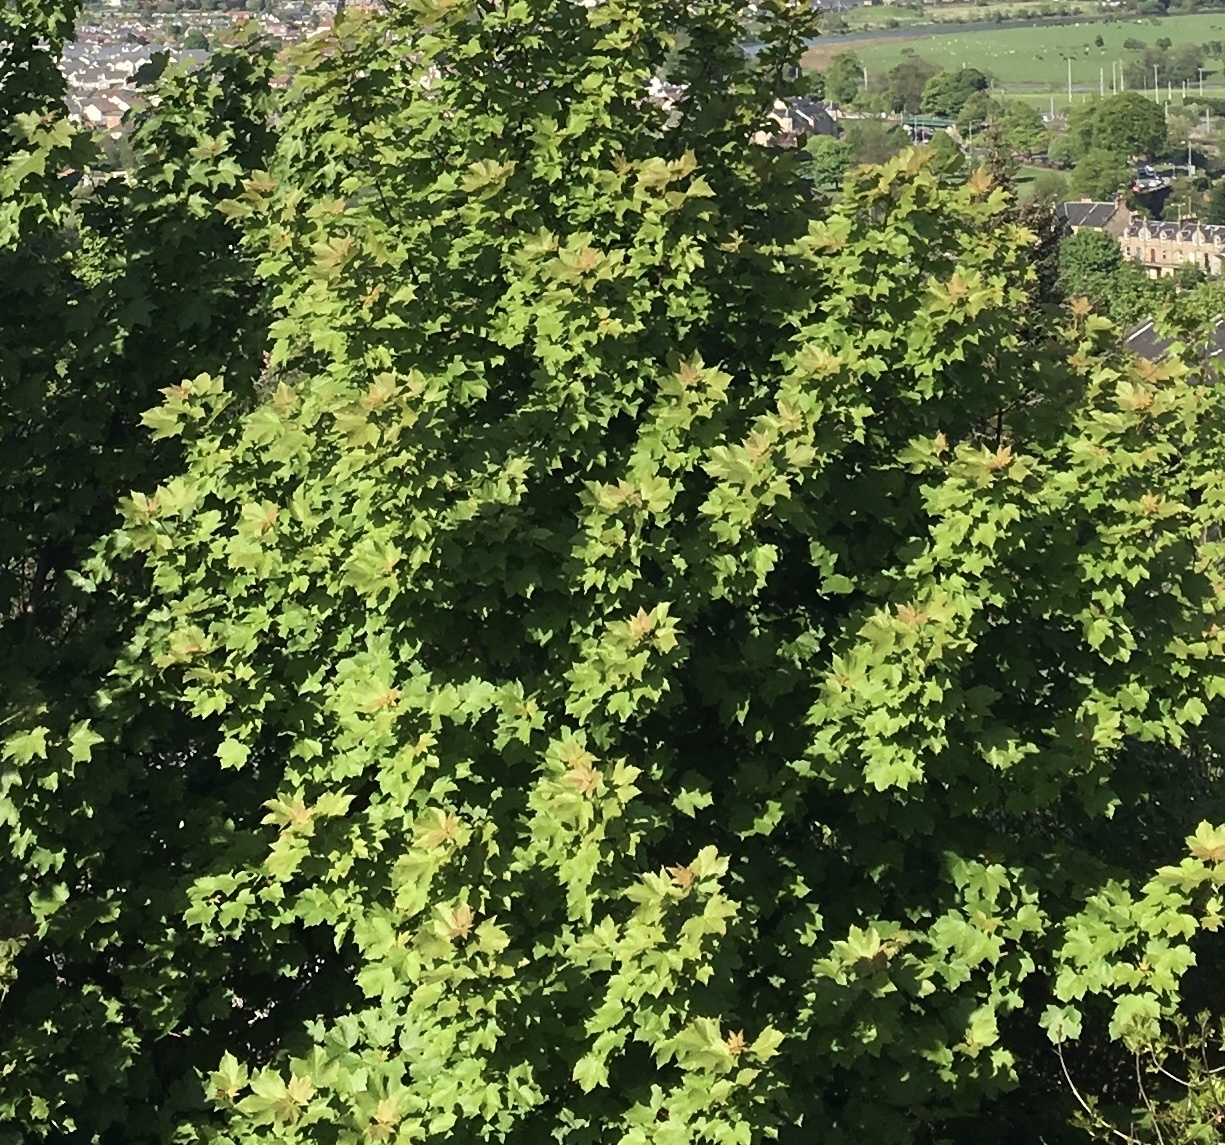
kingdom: Plantae
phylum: Tracheophyta
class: Magnoliopsida
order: Sapindales
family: Sapindaceae
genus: Acer
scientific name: Acer platanoides
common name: Norway maple
